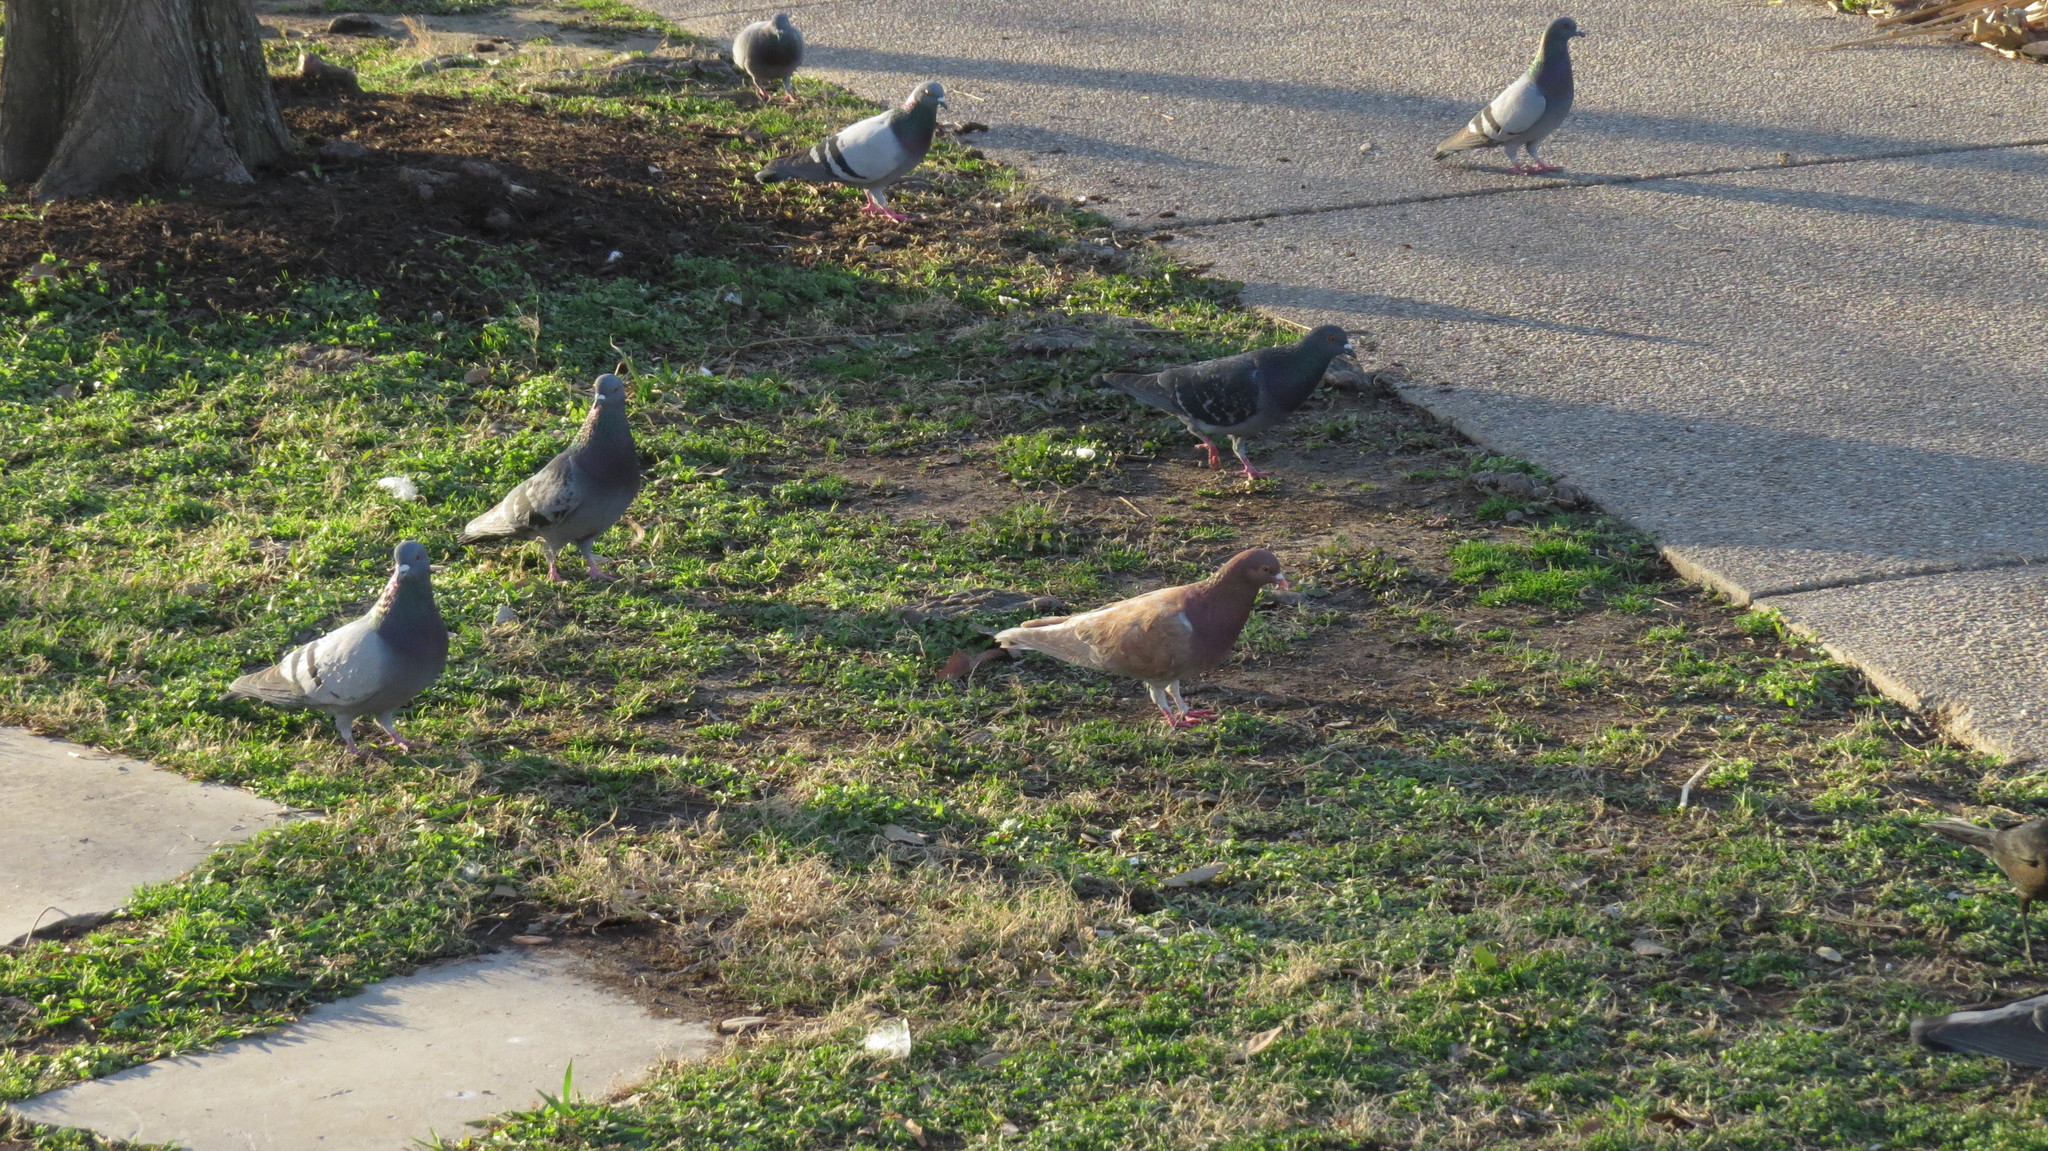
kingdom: Animalia
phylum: Chordata
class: Aves
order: Columbiformes
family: Columbidae
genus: Columba
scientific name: Columba livia
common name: Rock pigeon
